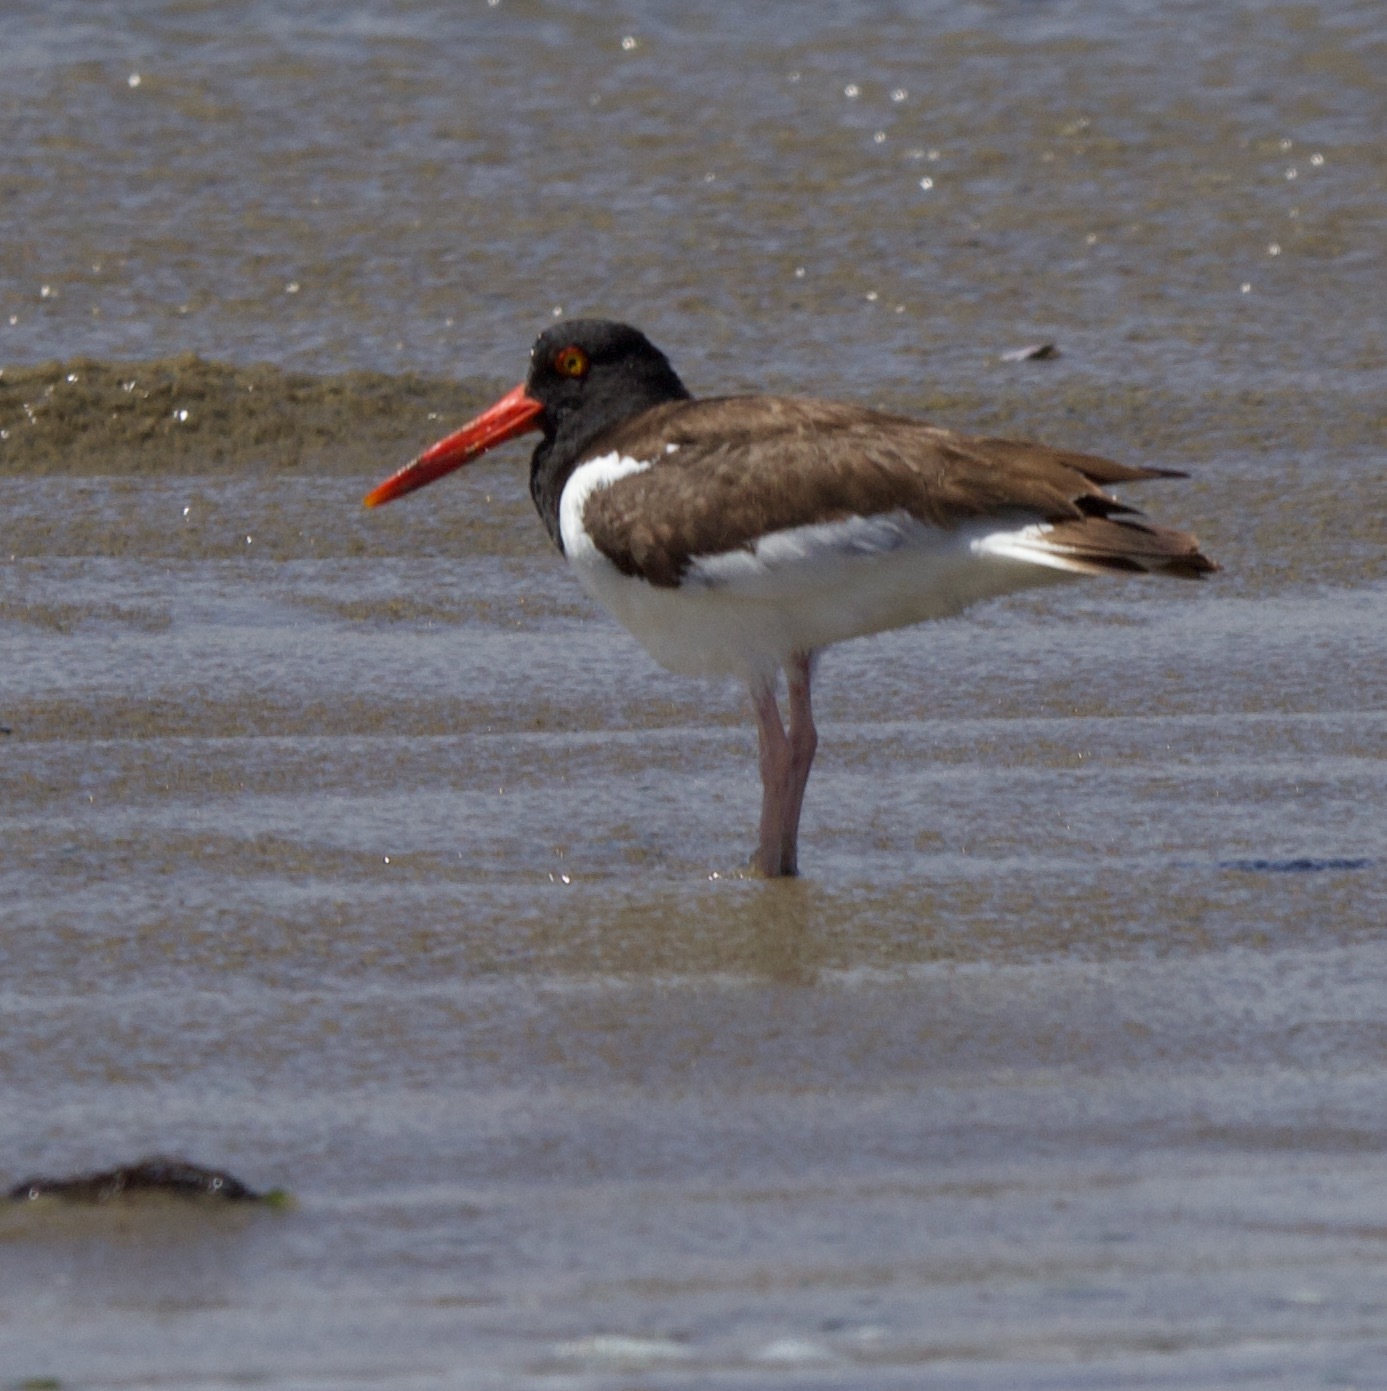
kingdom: Animalia
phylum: Chordata
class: Aves
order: Charadriiformes
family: Haematopodidae
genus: Haematopus
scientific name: Haematopus palliatus
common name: American oystercatcher
